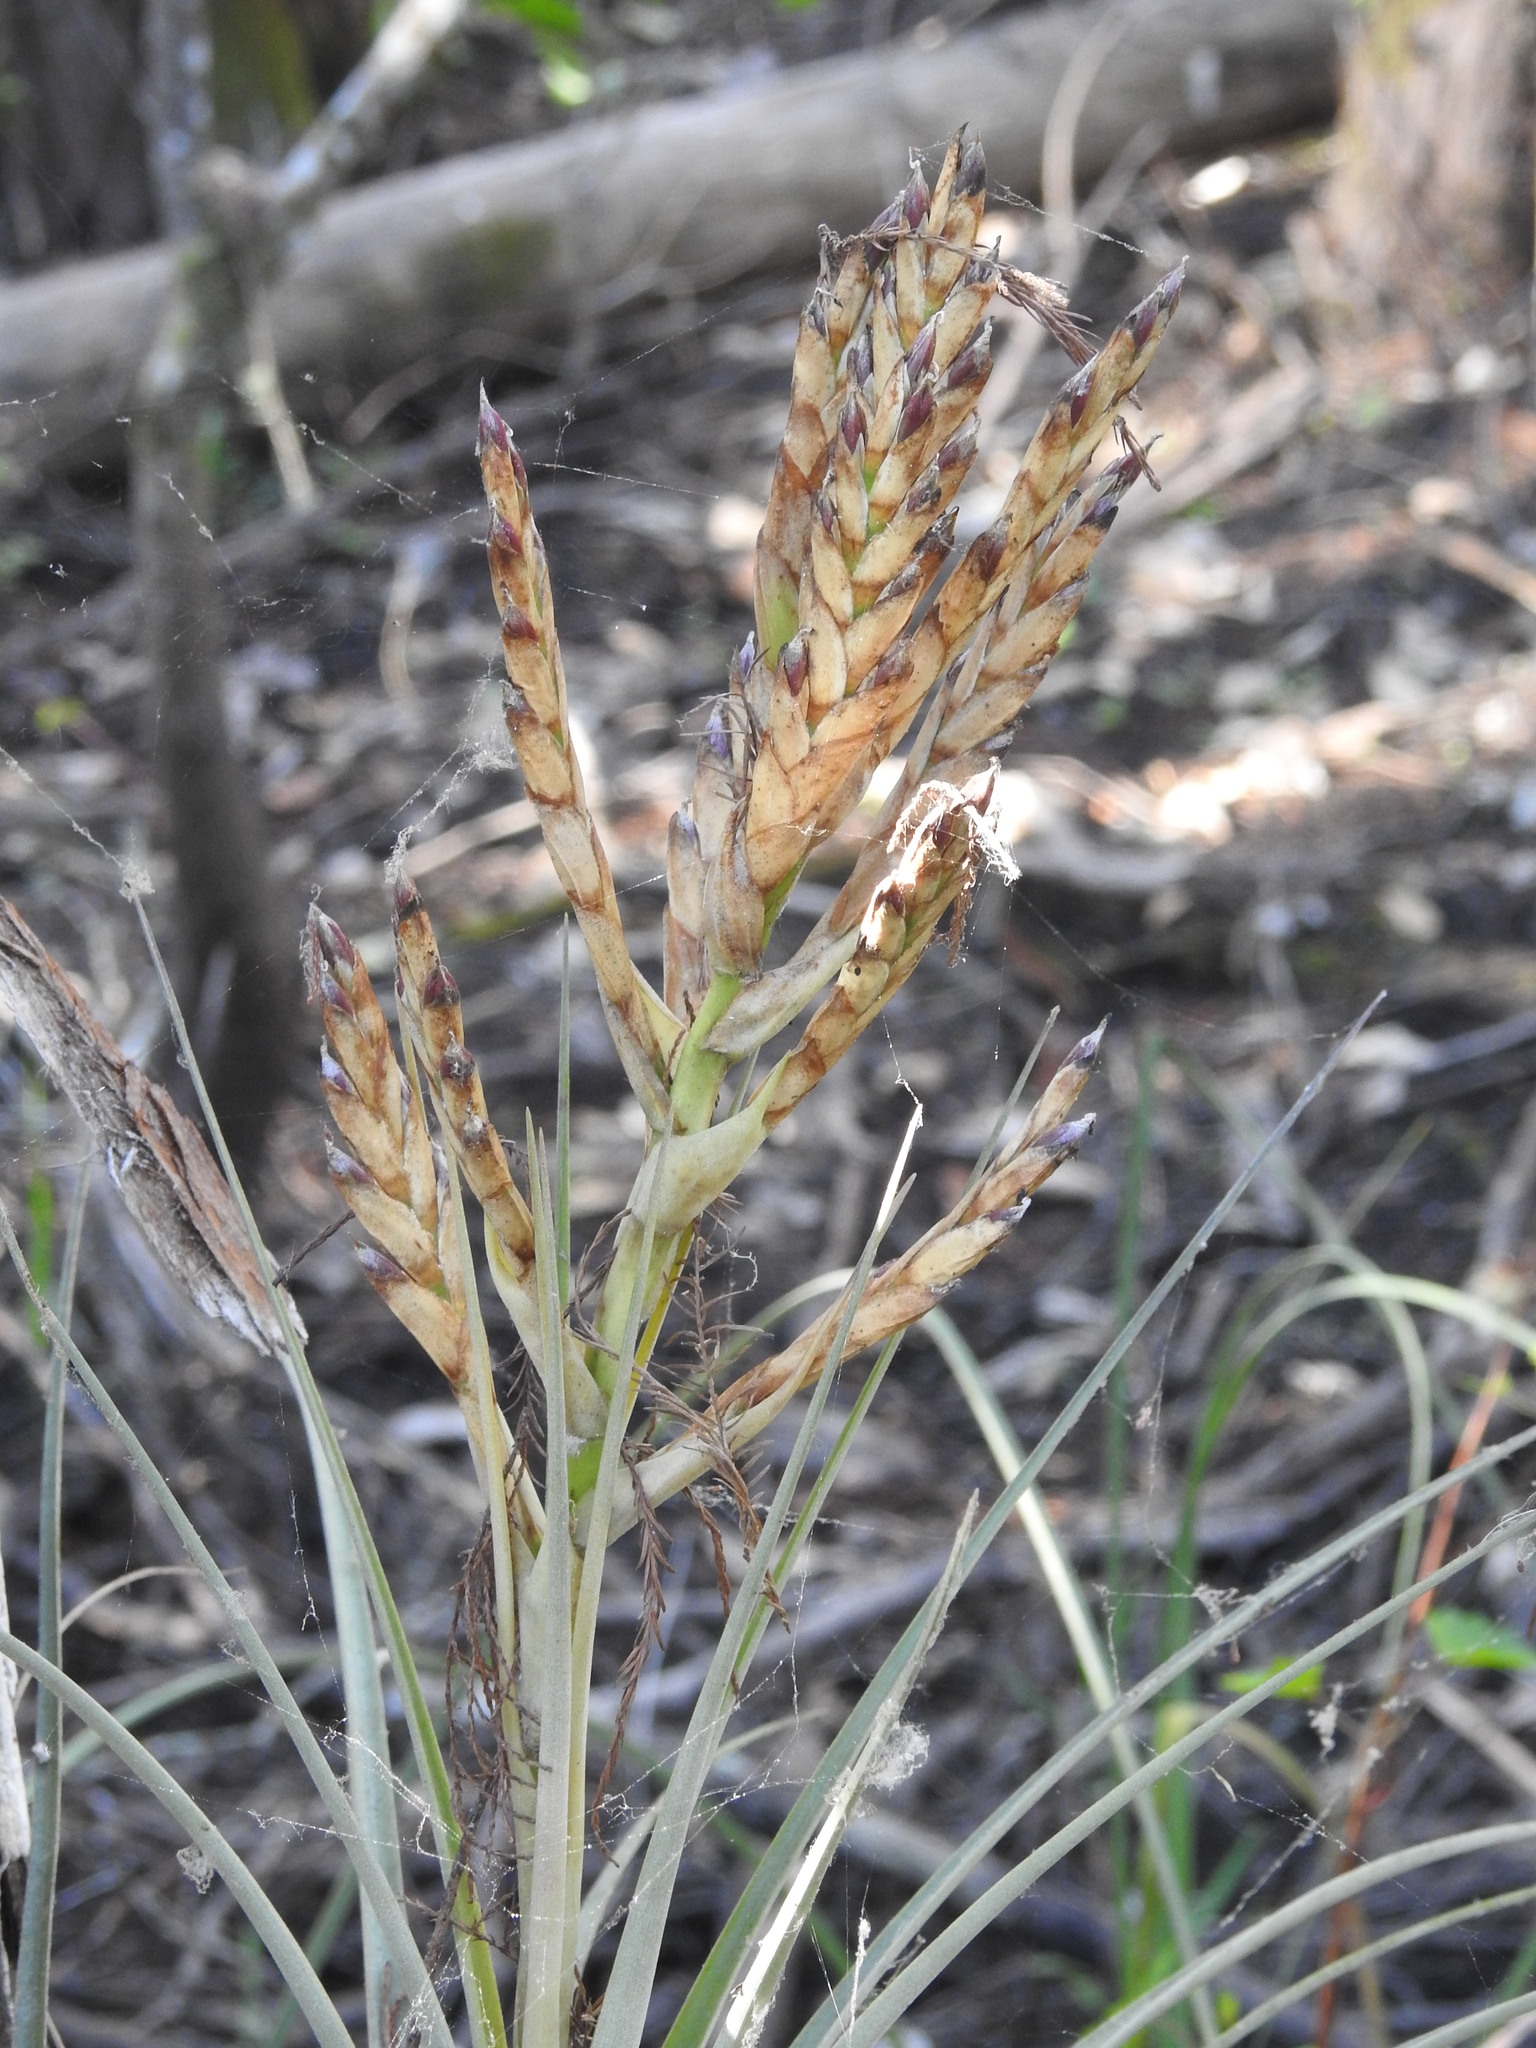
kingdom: Plantae
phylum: Tracheophyta
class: Liliopsida
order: Poales
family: Bromeliaceae
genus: Tillandsia
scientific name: Tillandsia fasciculata
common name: Giant airplant
